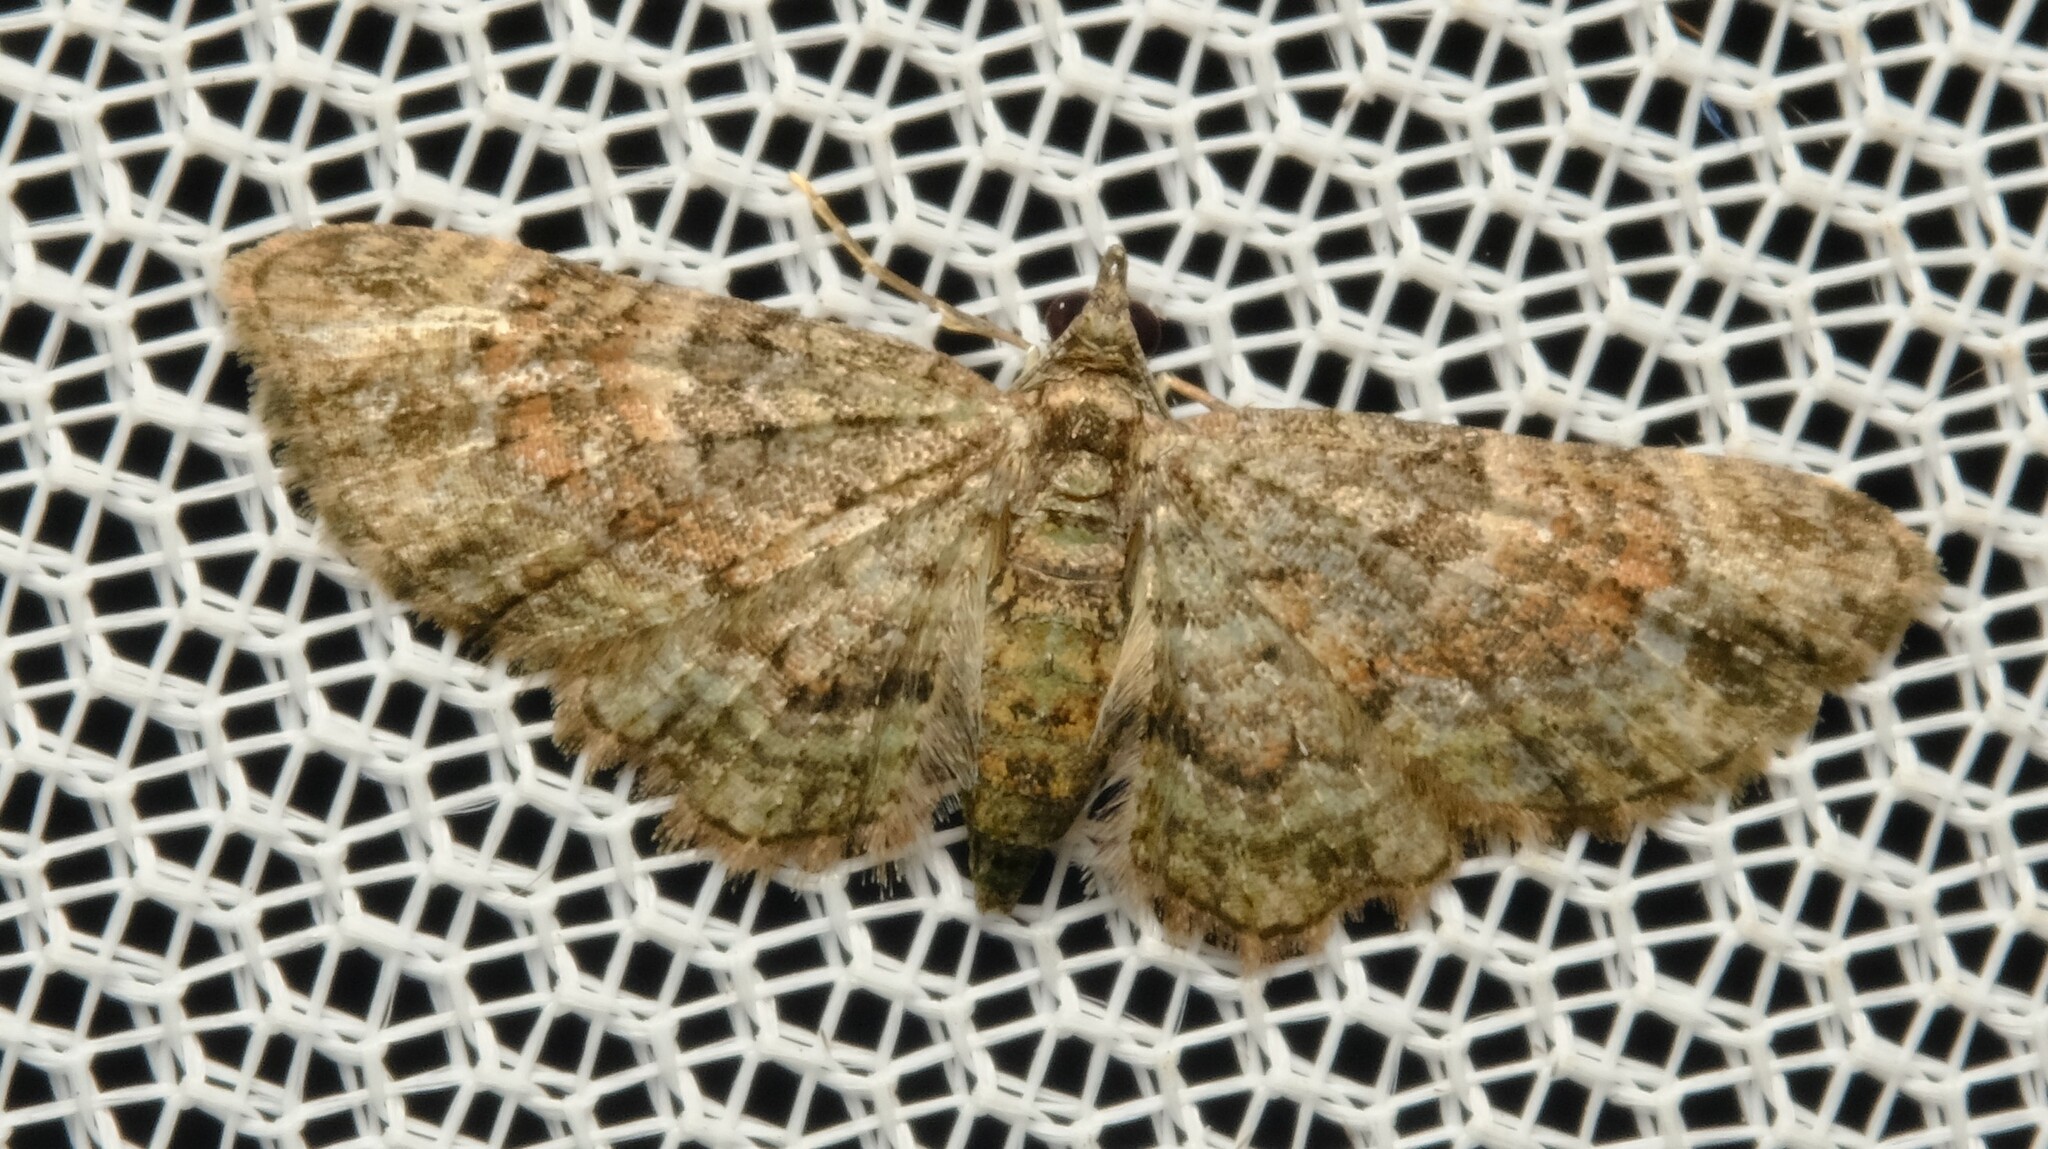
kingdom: Animalia
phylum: Arthropoda
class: Insecta
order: Lepidoptera
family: Geometridae
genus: Chloroclystis
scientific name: Chloroclystis catastreptes
